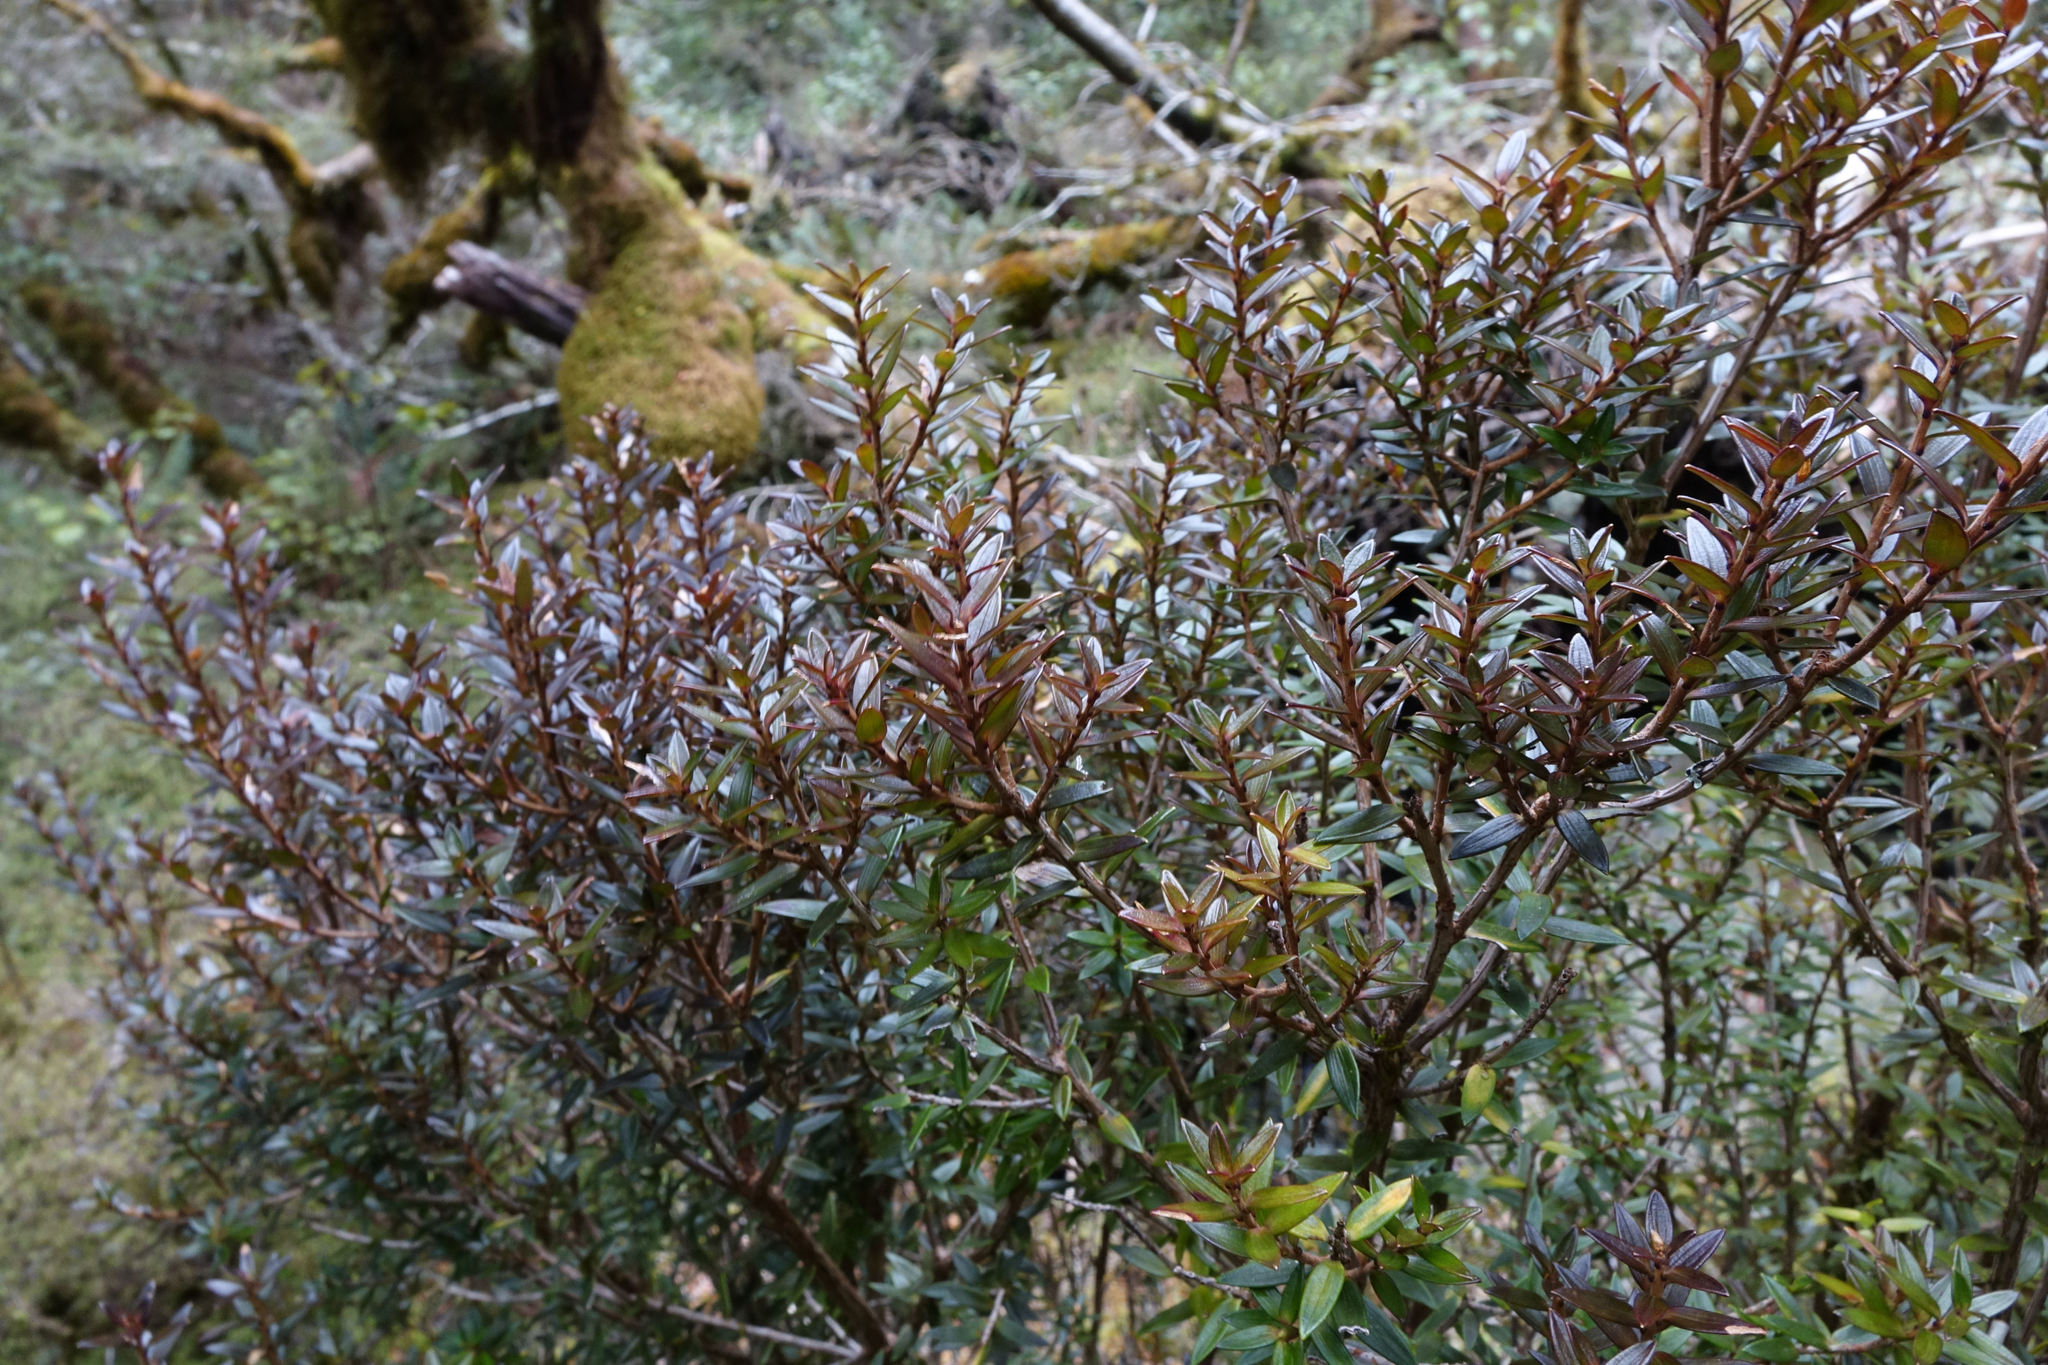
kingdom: Plantae
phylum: Tracheophyta
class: Magnoliopsida
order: Ericales
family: Ericaceae
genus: Archeria
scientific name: Archeria traversii
